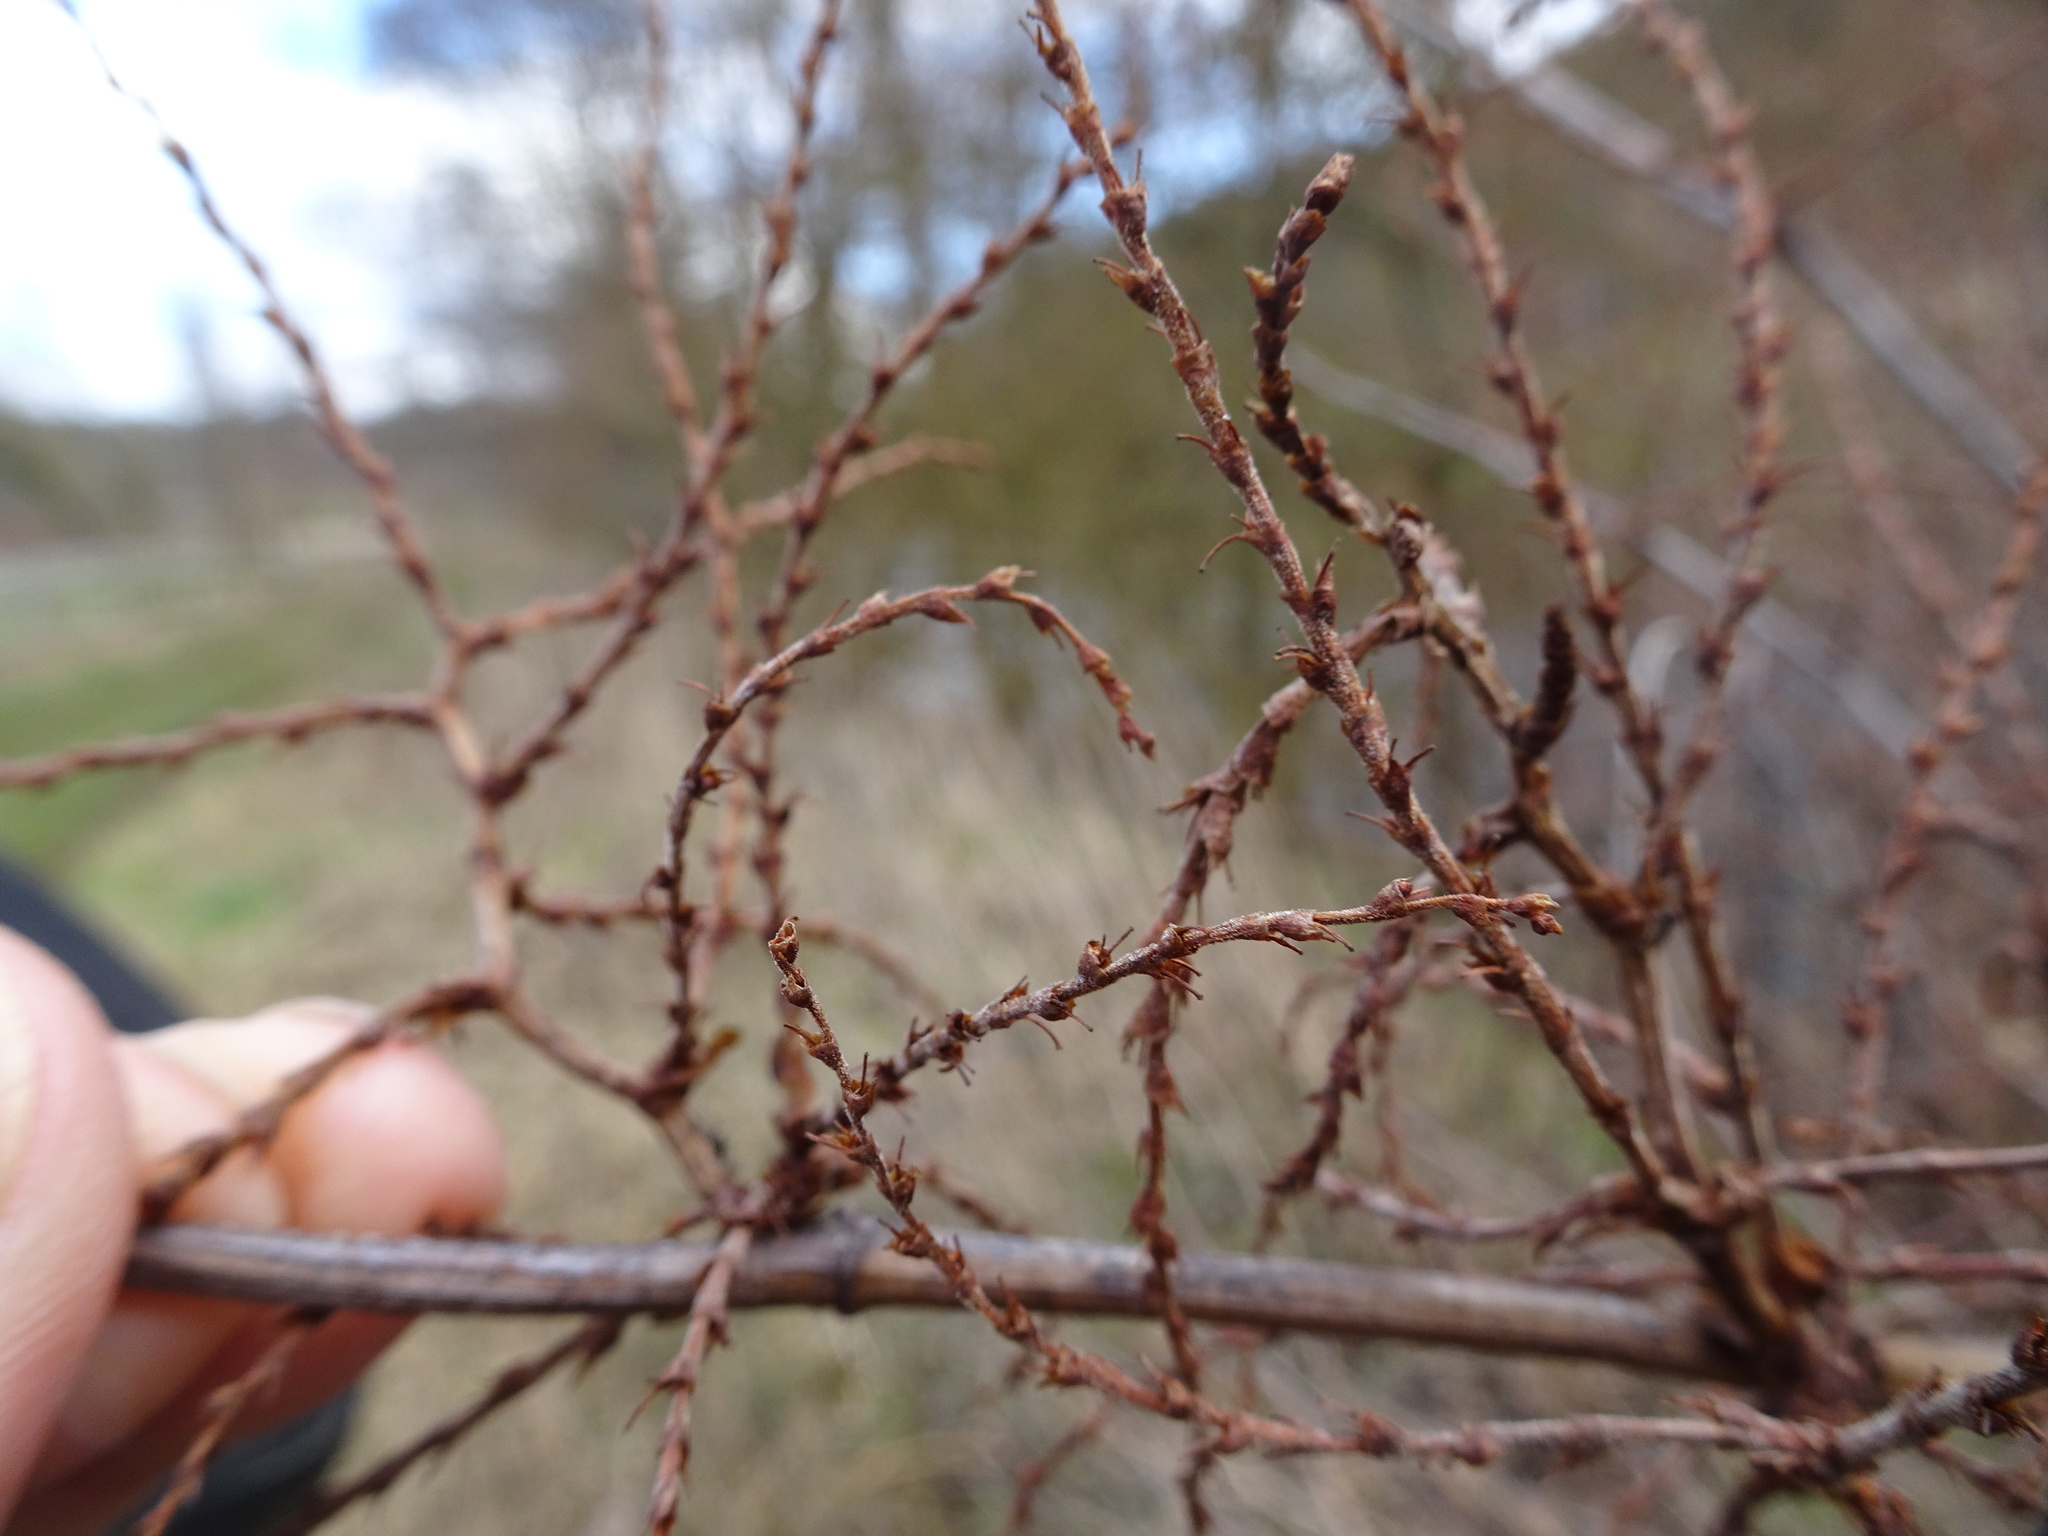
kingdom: Plantae
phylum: Tracheophyta
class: Magnoliopsida
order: Caryophyllales
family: Polygonaceae
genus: Reynoutria
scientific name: Reynoutria japonica
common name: Japanese knotweed
